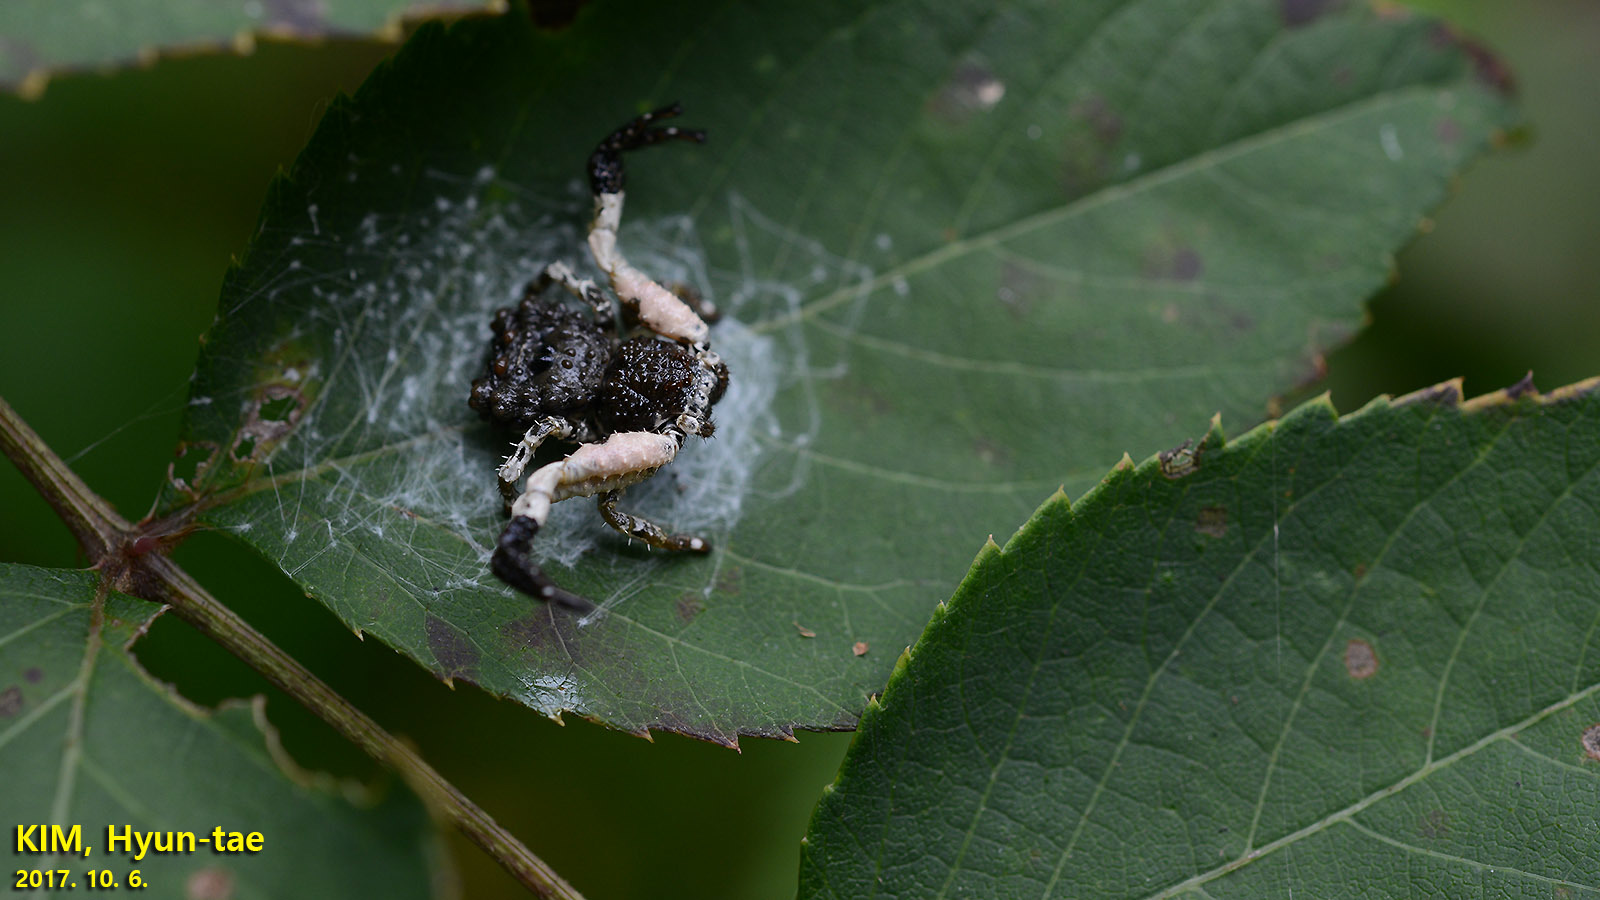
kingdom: Animalia
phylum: Arthropoda
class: Arachnida
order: Araneae
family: Thomisidae
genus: Phrynarachne
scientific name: Phrynarachne katoi
